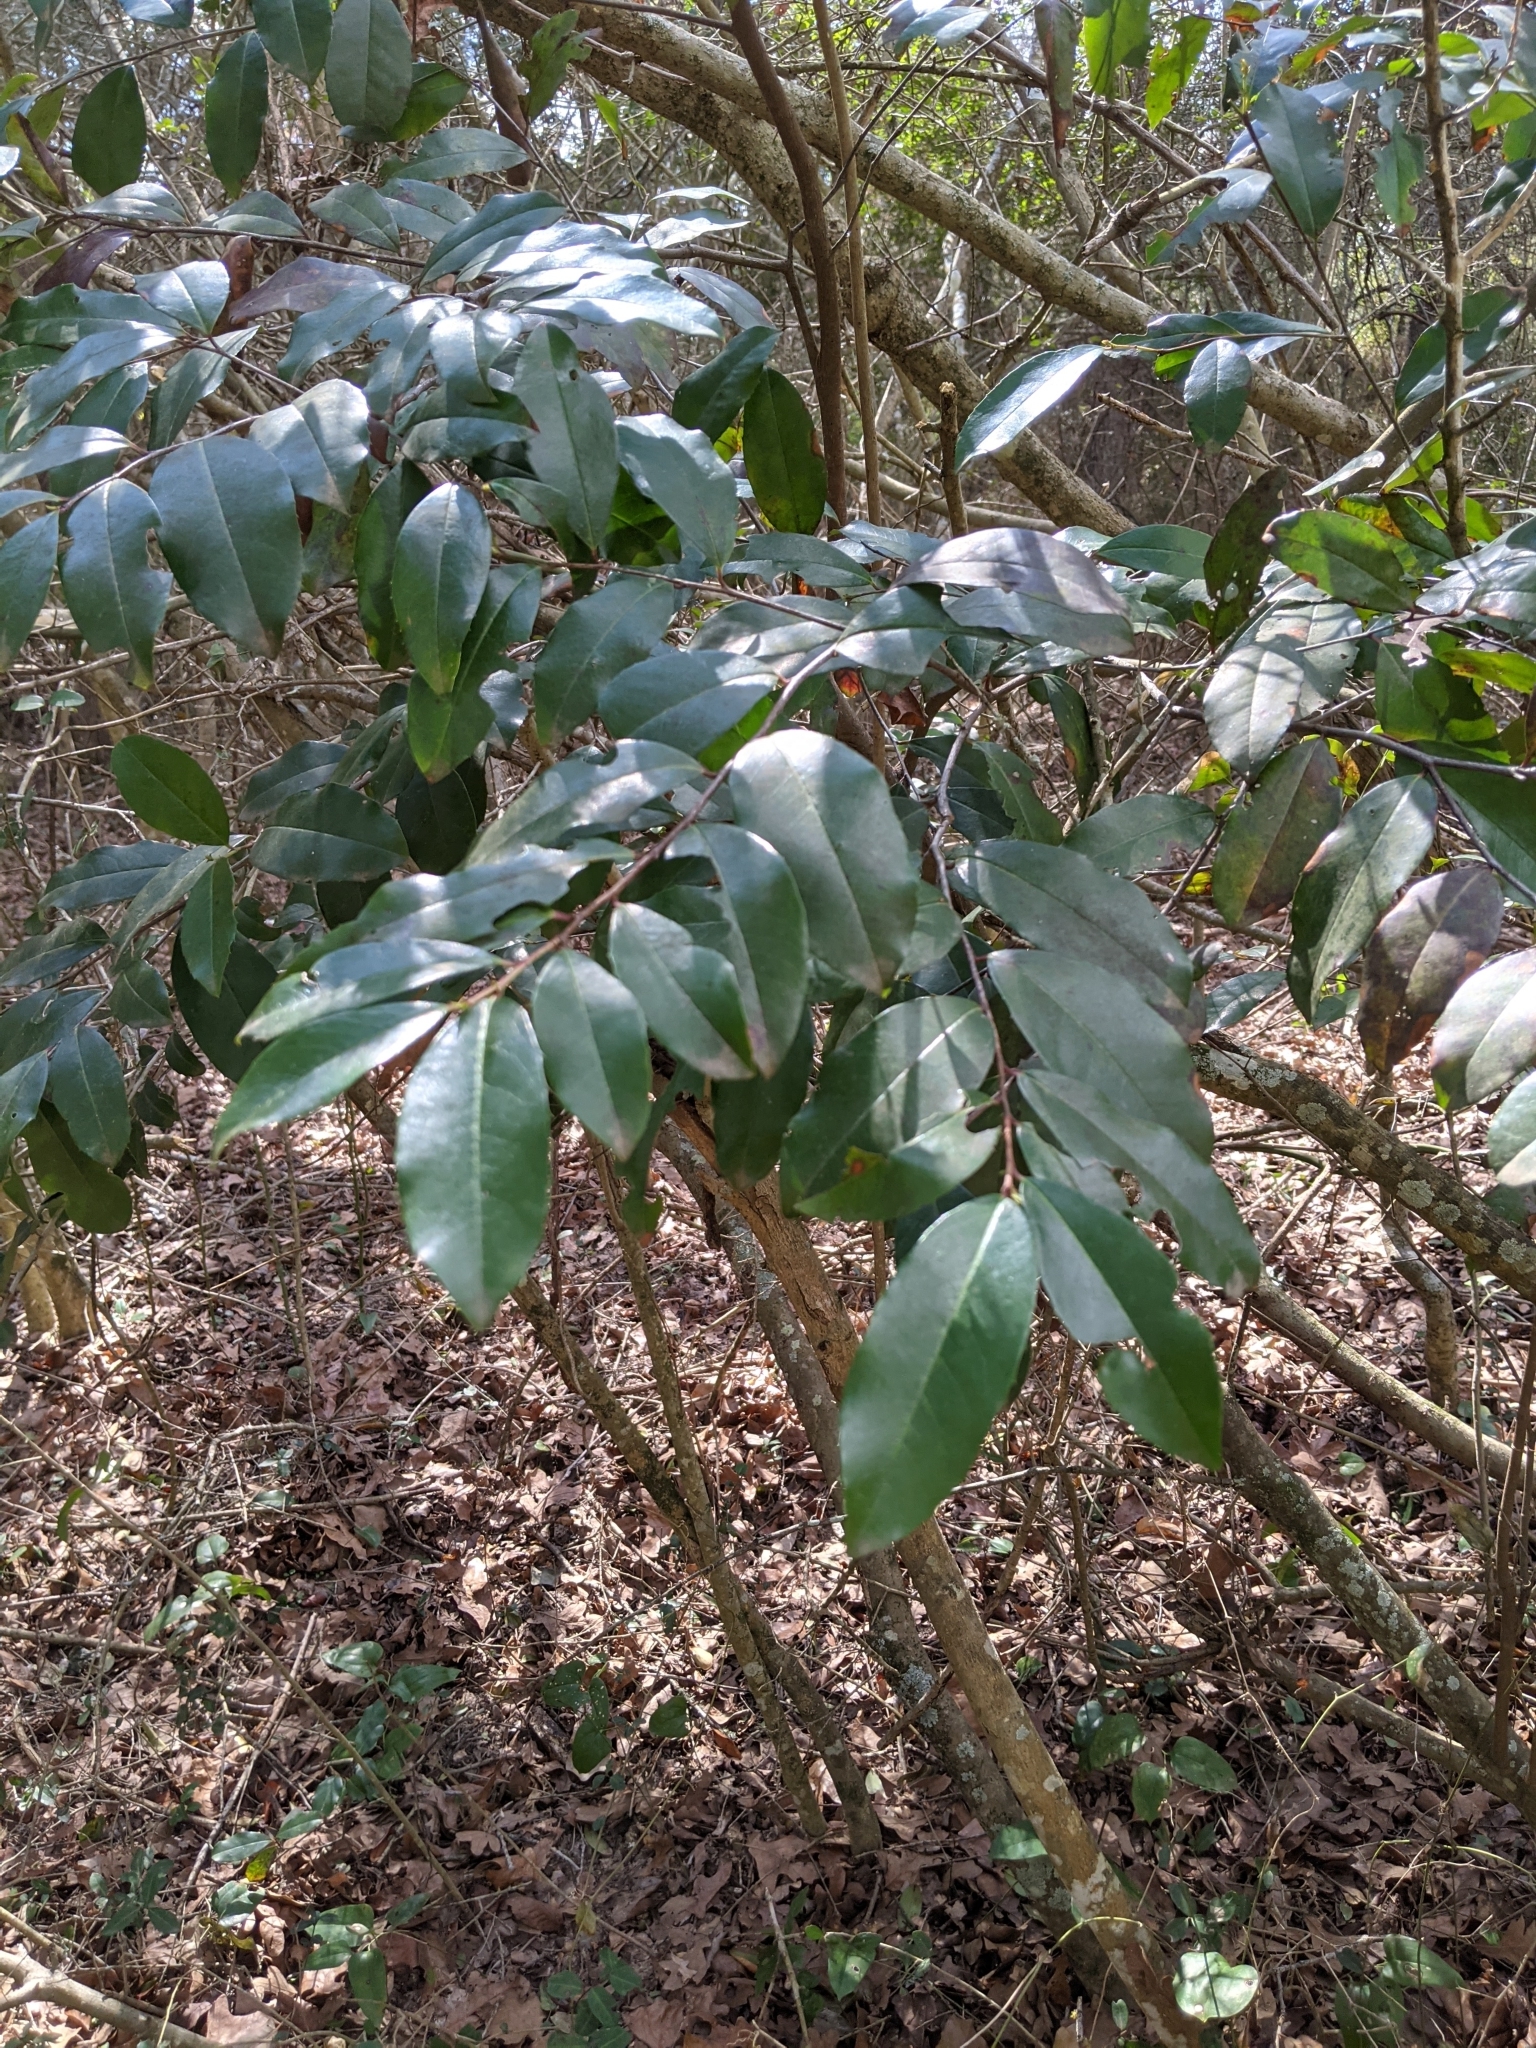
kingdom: Plantae
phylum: Tracheophyta
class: Magnoliopsida
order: Rosales
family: Rosaceae
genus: Prunus
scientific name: Prunus caroliniana
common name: Carolina laurel cherry
